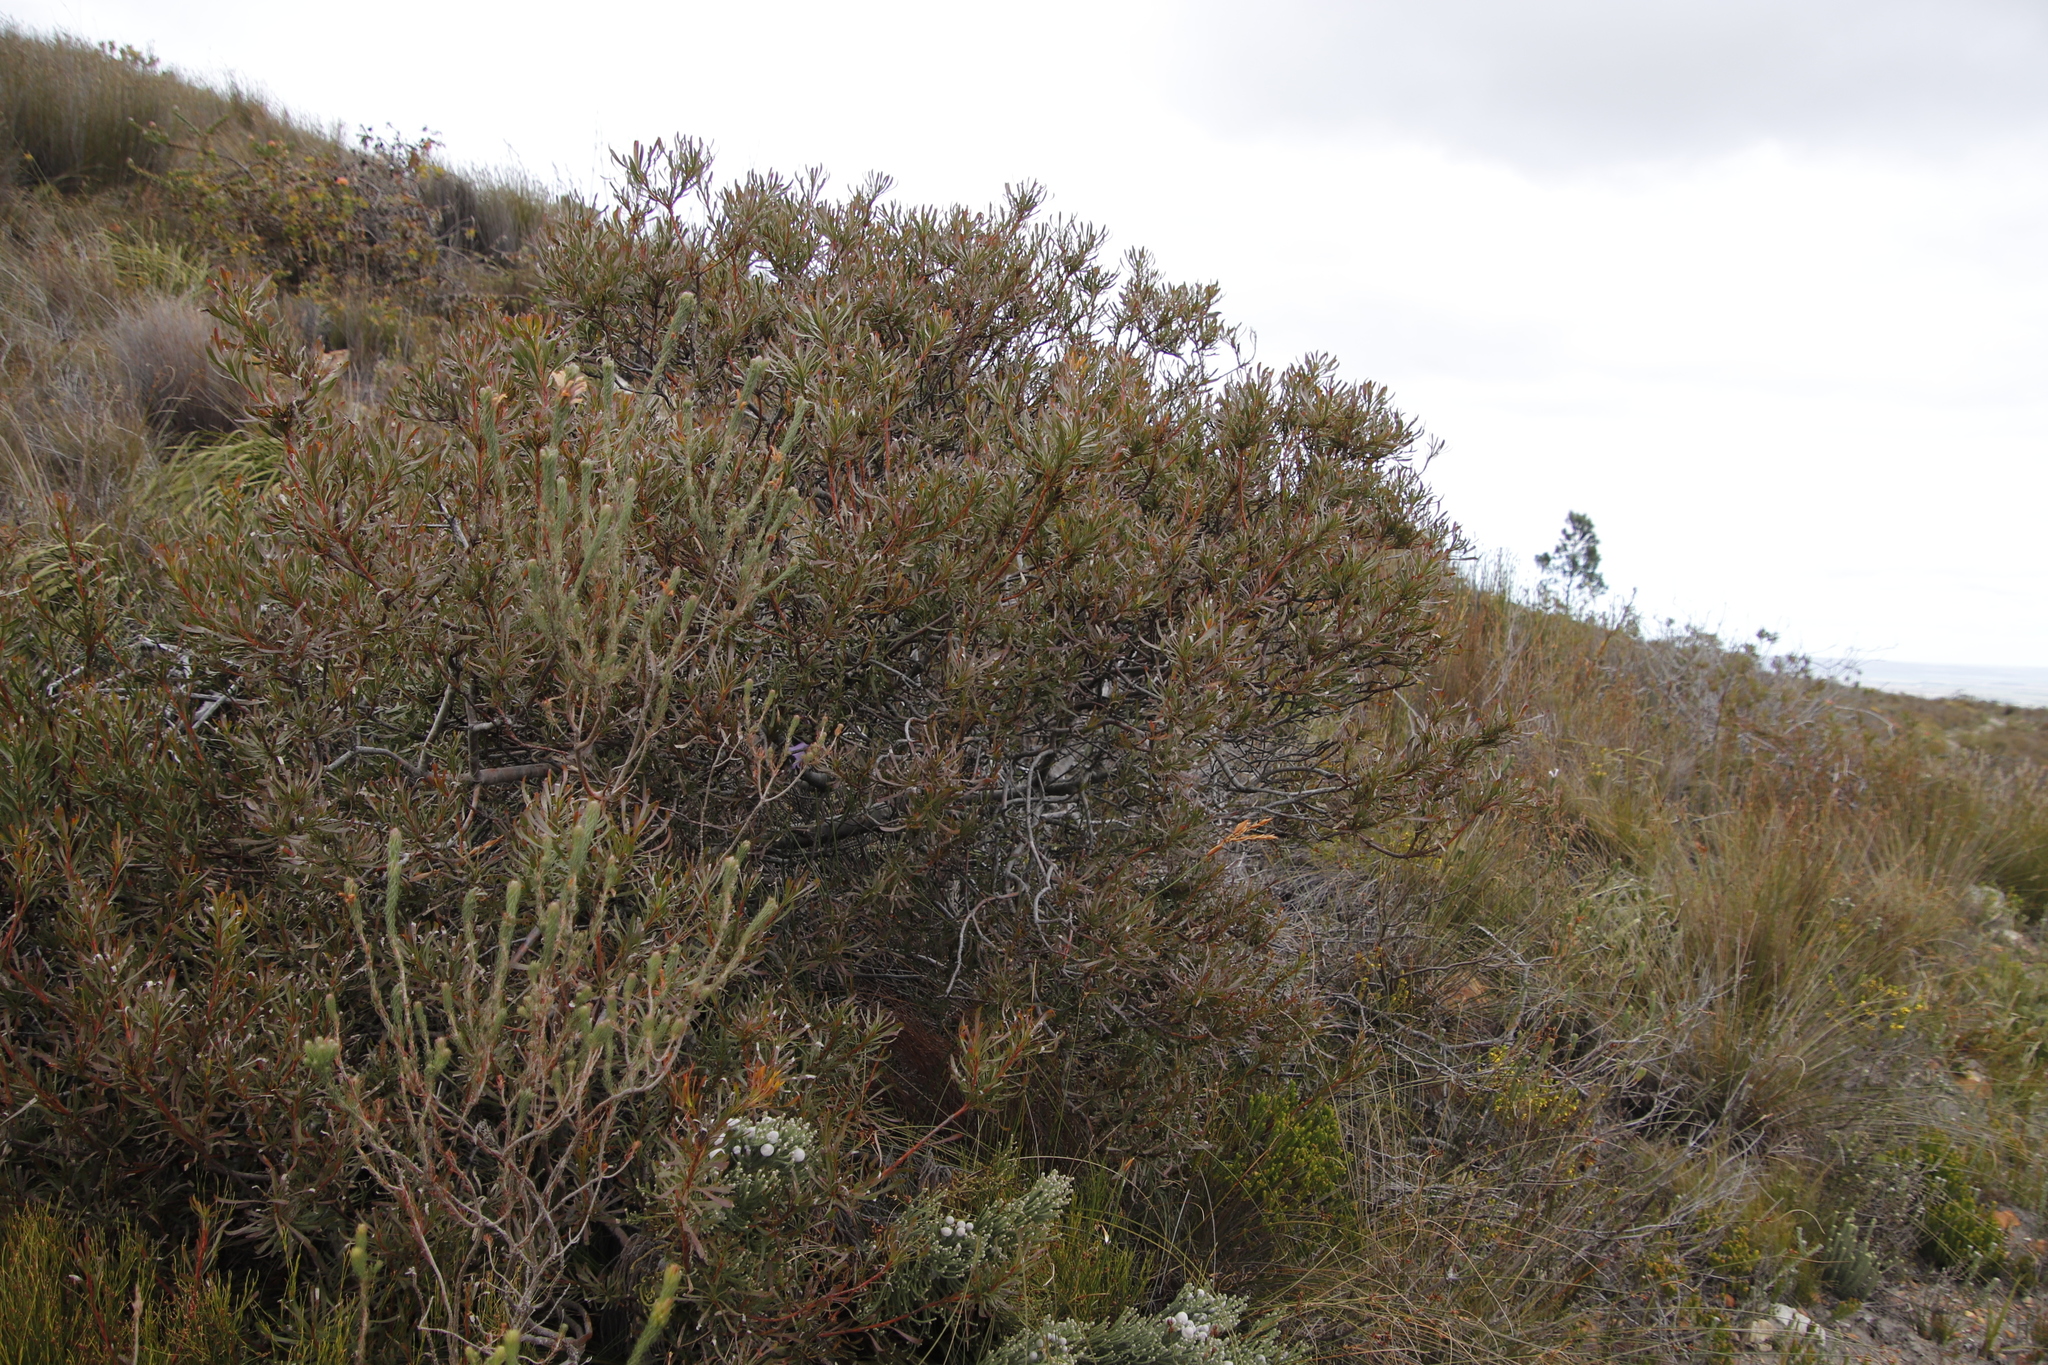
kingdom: Plantae
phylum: Tracheophyta
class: Magnoliopsida
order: Proteales
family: Proteaceae
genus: Aulax
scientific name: Aulax umbellata
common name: Broad-leaf featherbush
